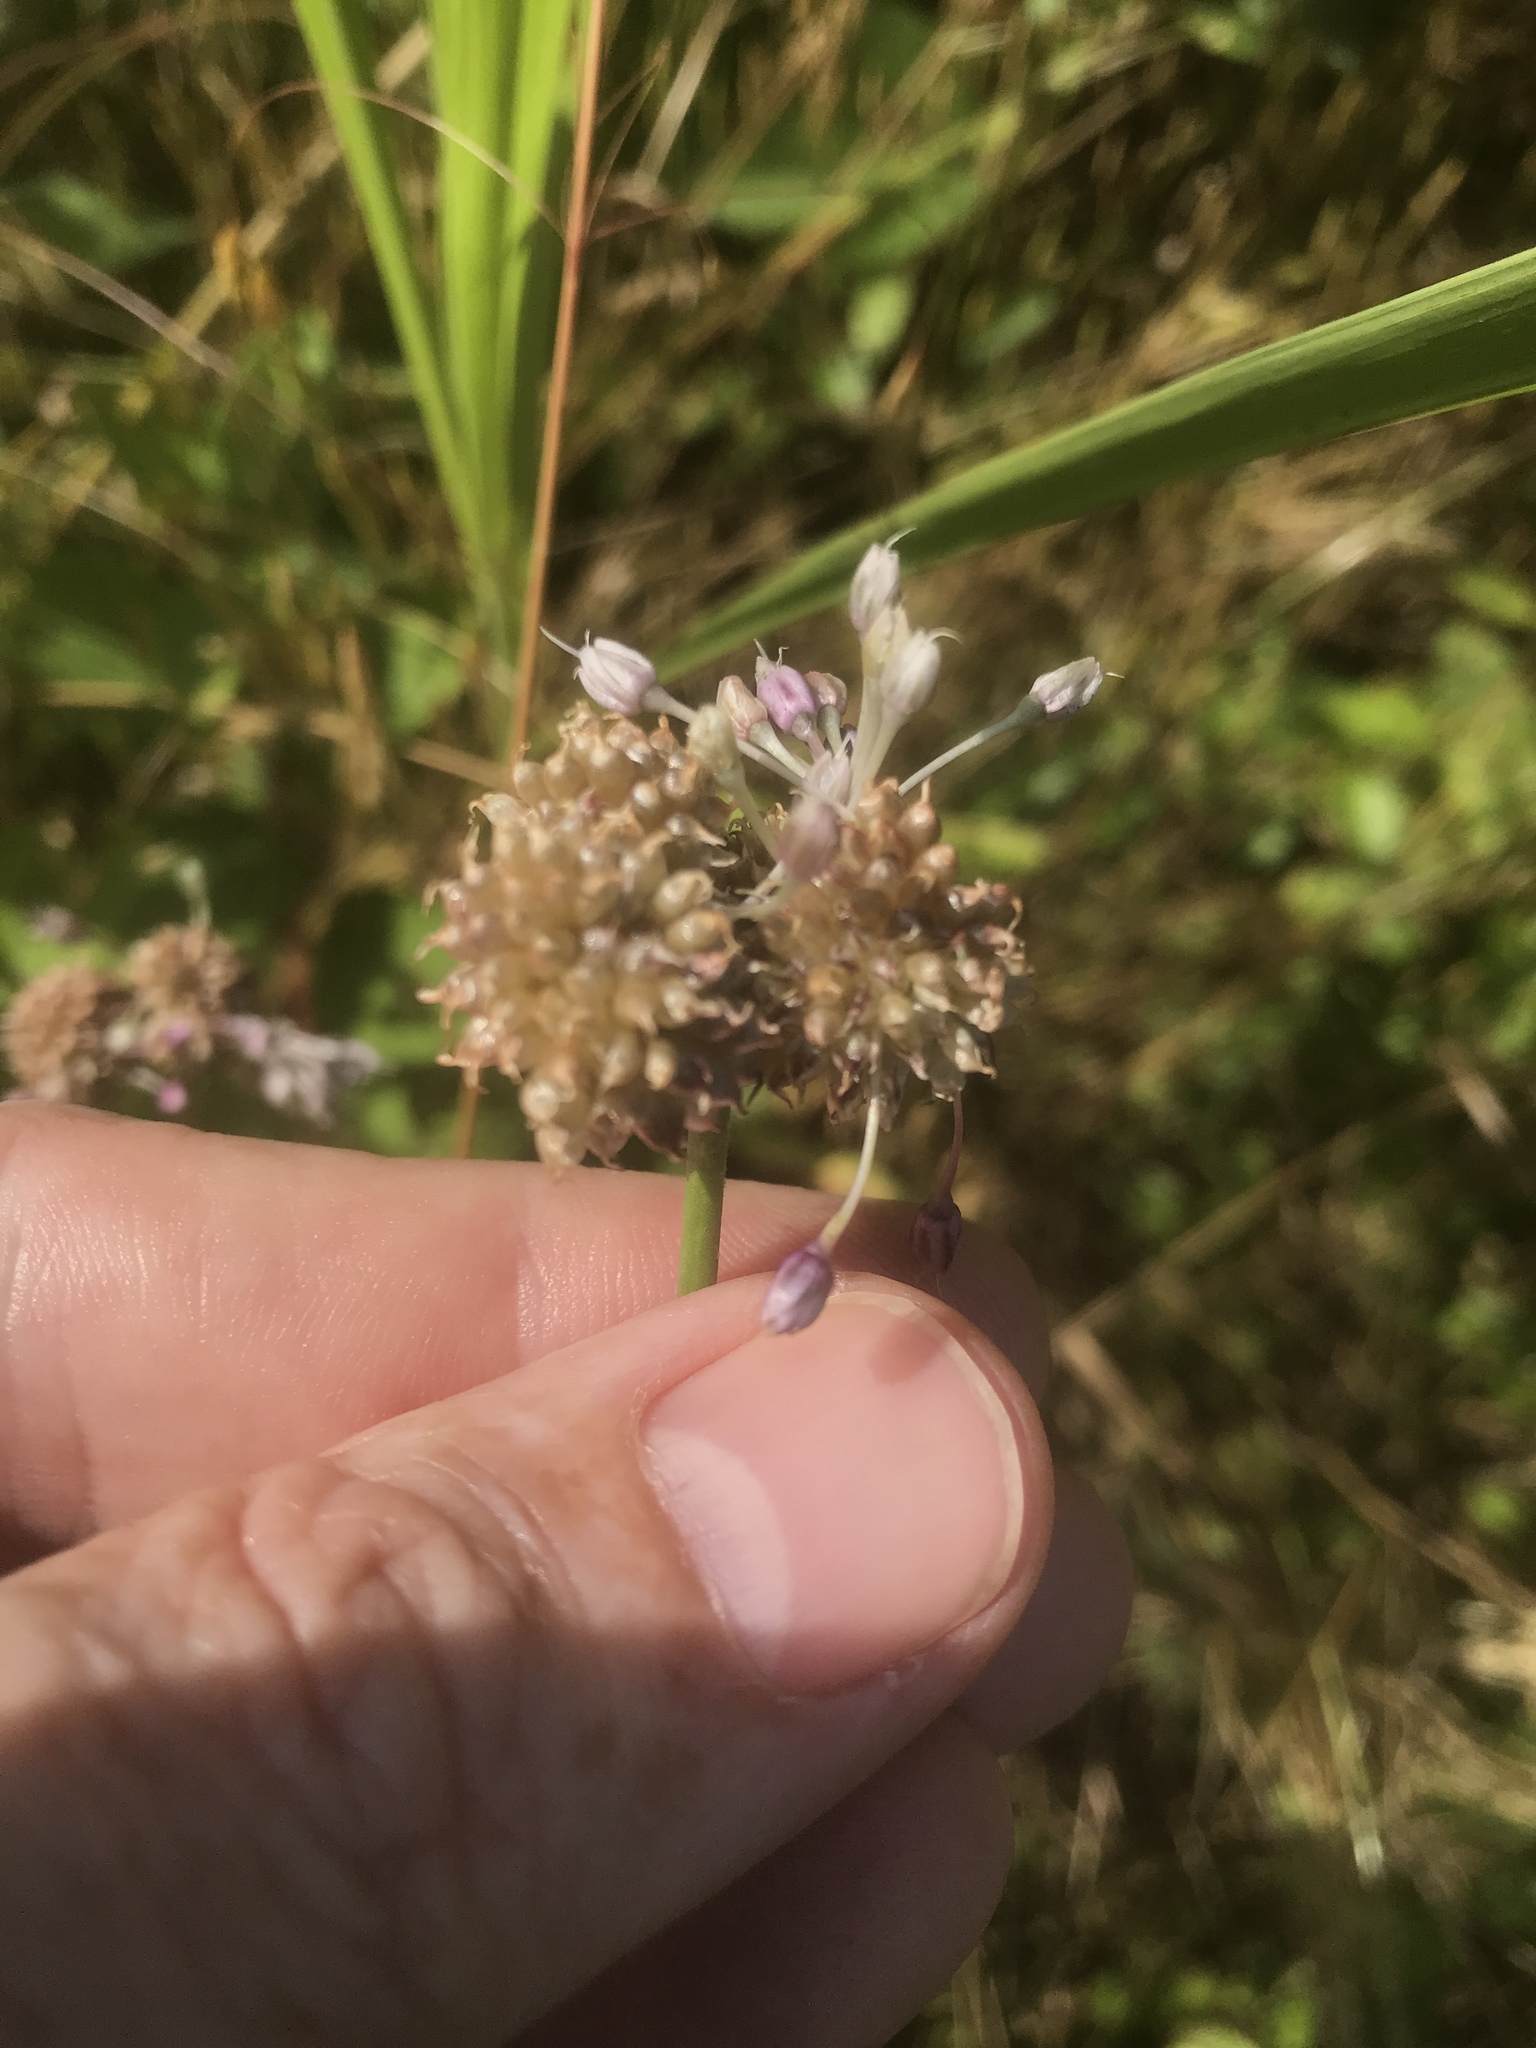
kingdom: Plantae
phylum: Tracheophyta
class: Liliopsida
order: Asparagales
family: Amaryllidaceae
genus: Allium
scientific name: Allium vineale
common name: Crow garlic
